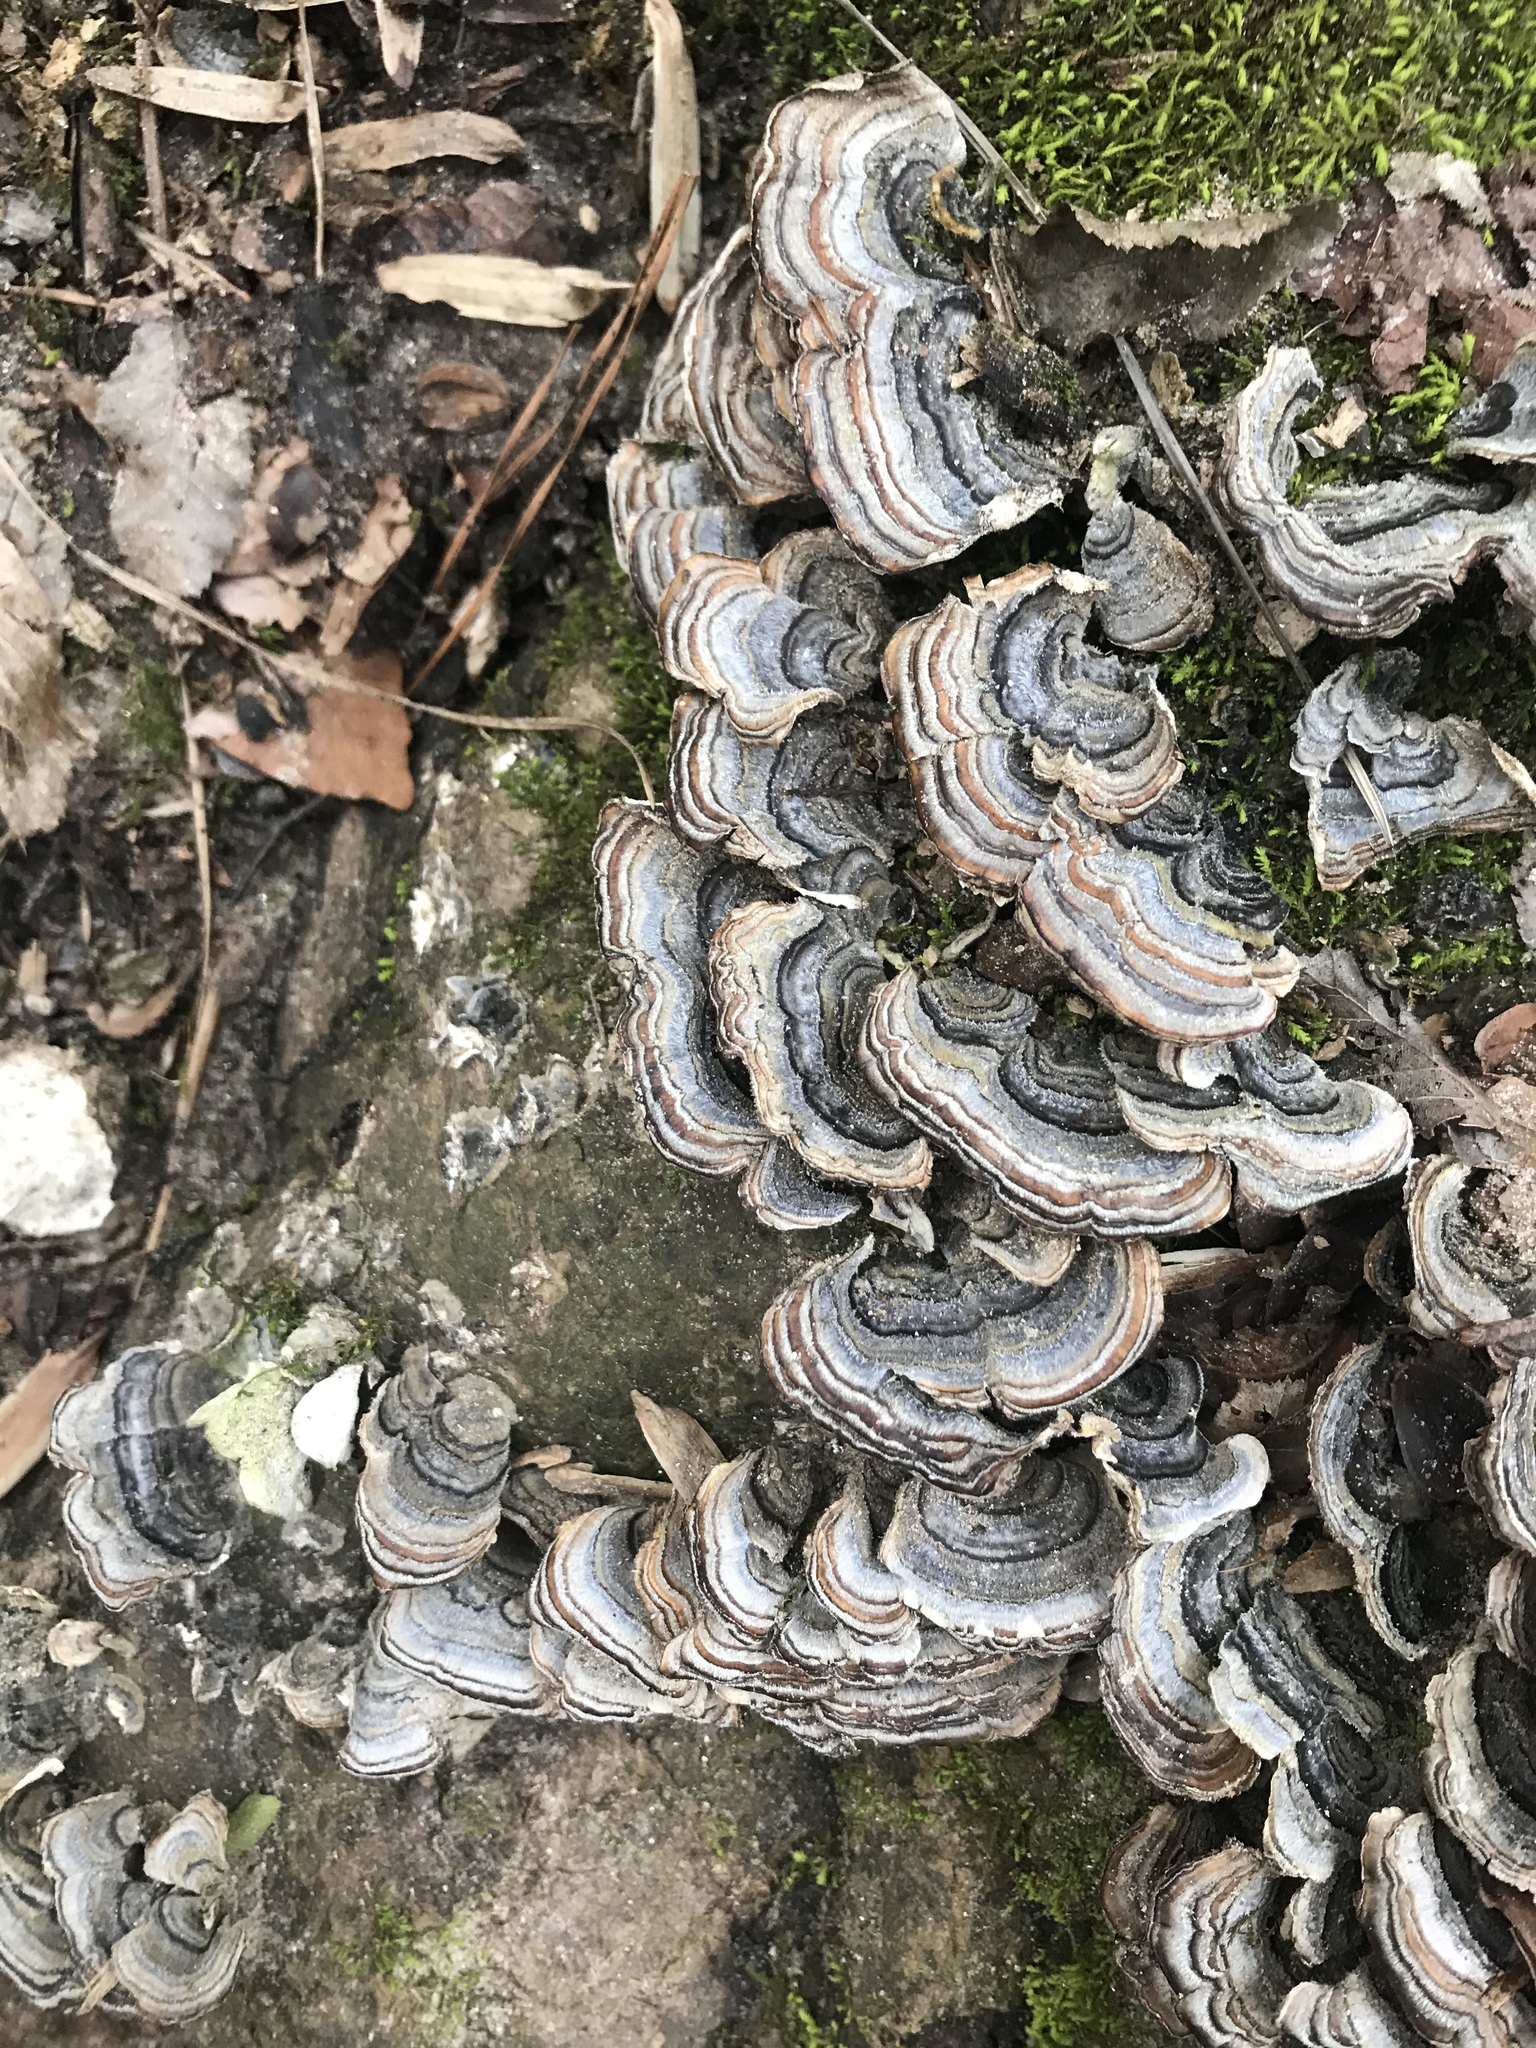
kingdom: Fungi
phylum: Basidiomycota
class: Agaricomycetes
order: Polyporales
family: Polyporaceae
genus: Trametes
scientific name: Trametes versicolor
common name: Turkeytail
